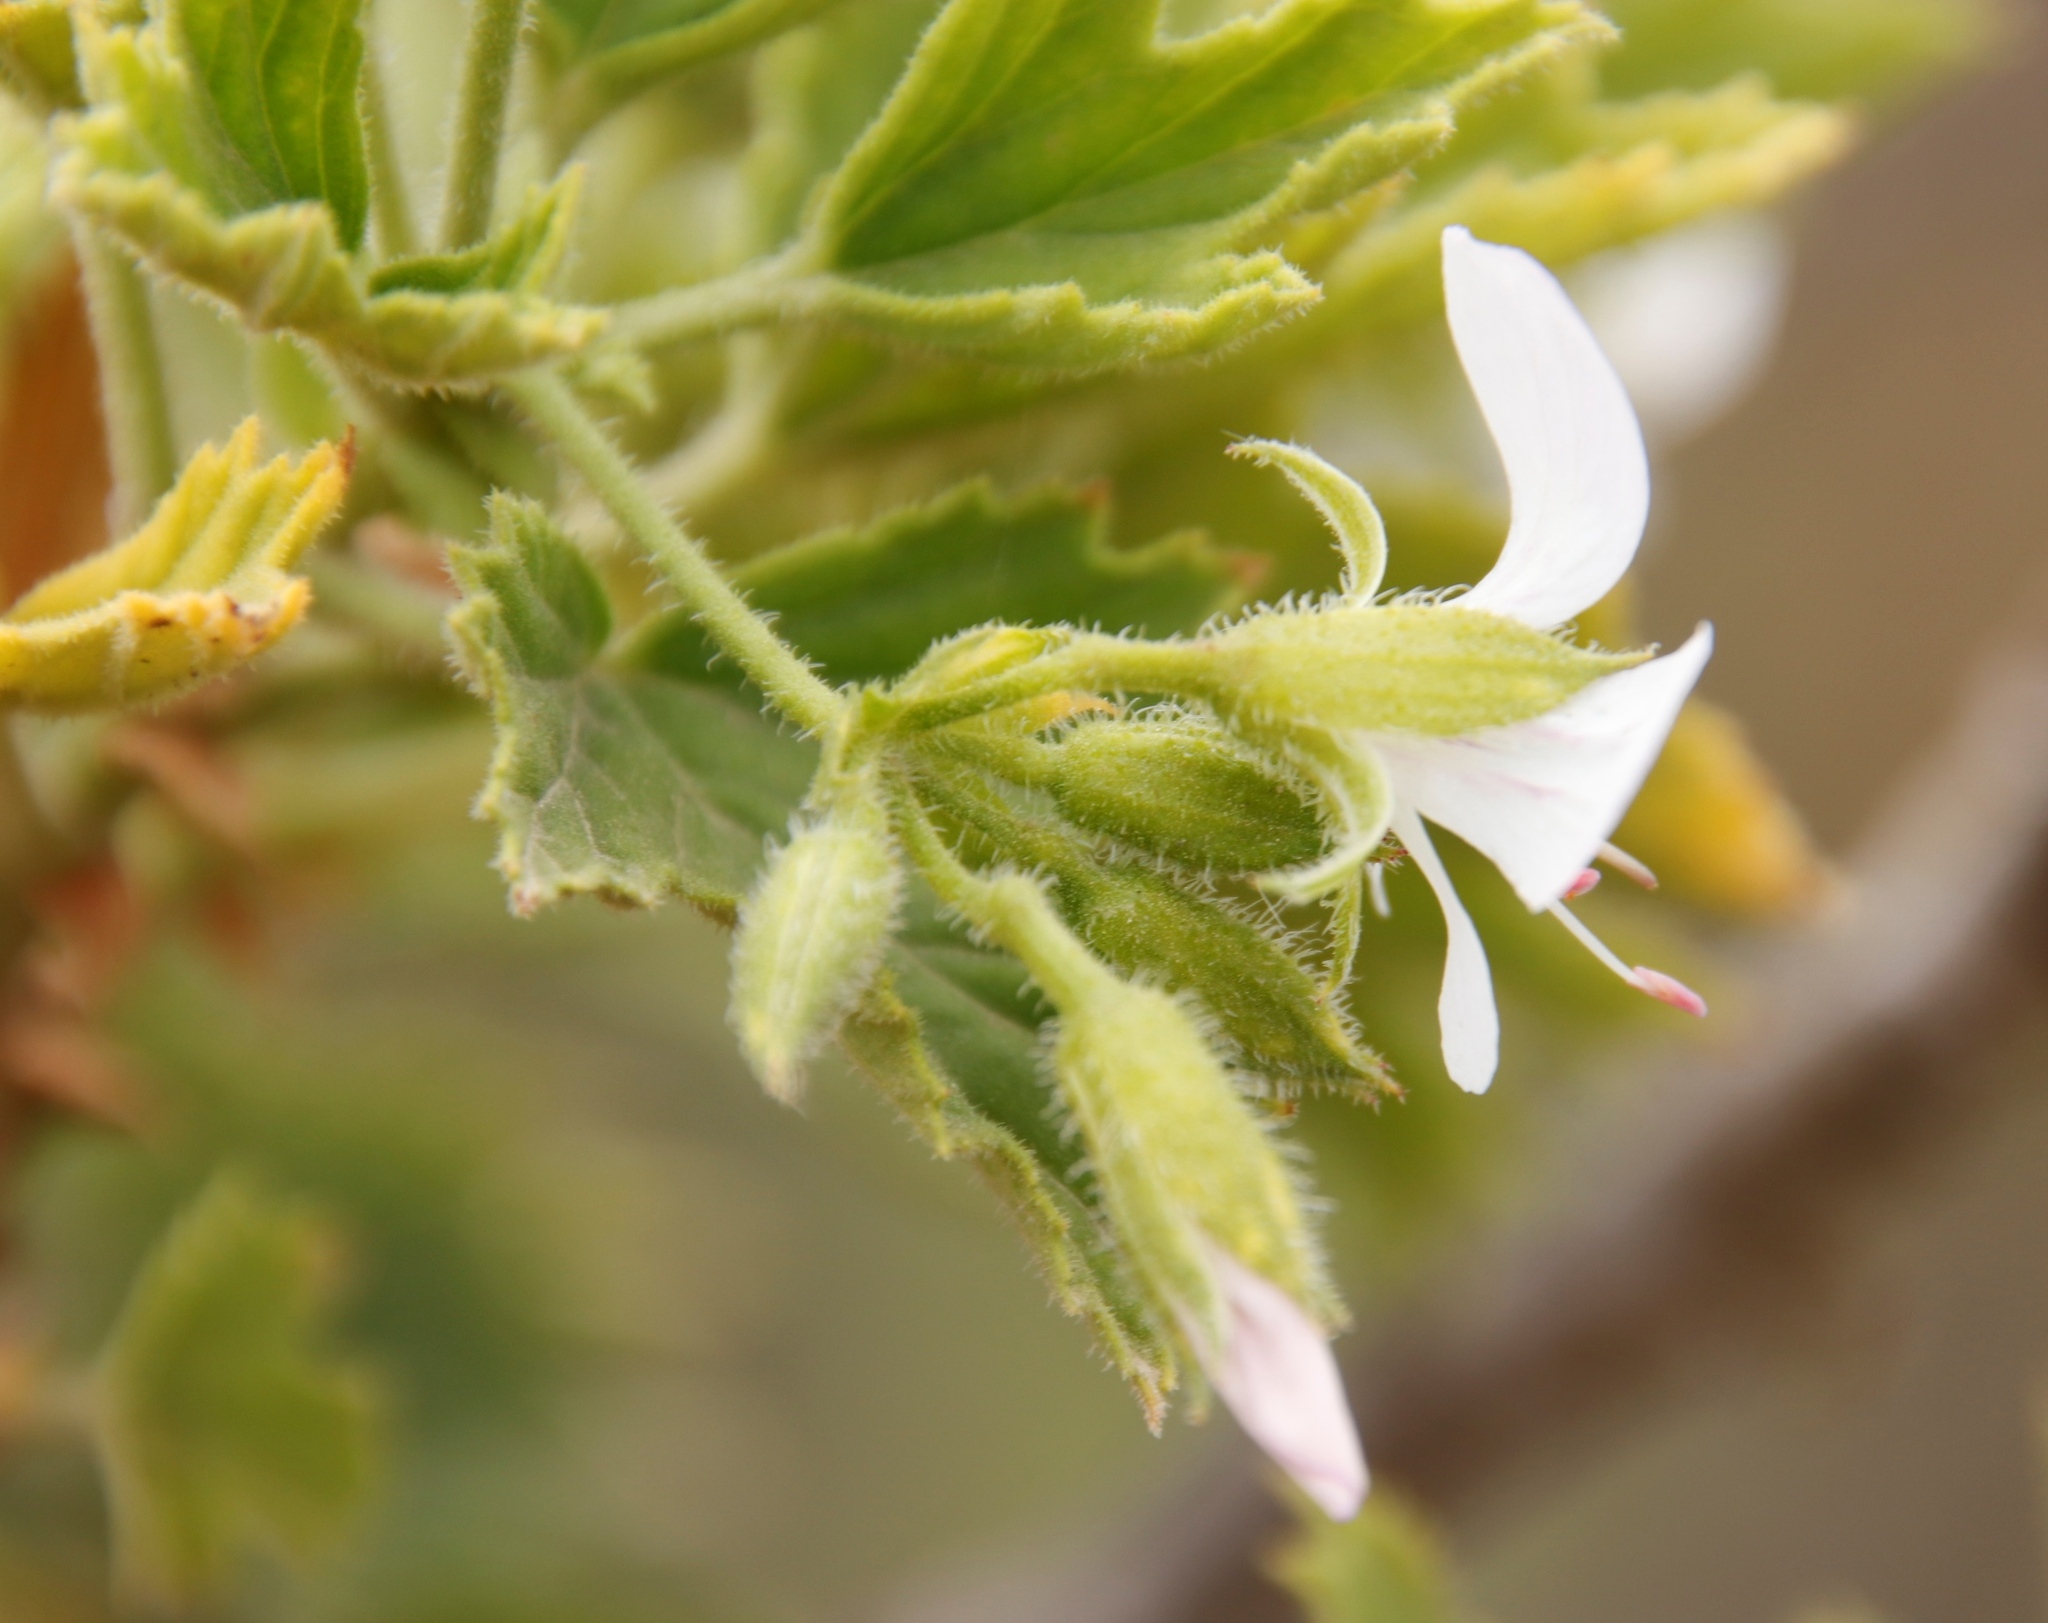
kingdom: Plantae
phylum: Tracheophyta
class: Magnoliopsida
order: Geraniales
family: Geraniaceae
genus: Pelargonium
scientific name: Pelargonium ribifolium
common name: Currant-leaf pelargonium
